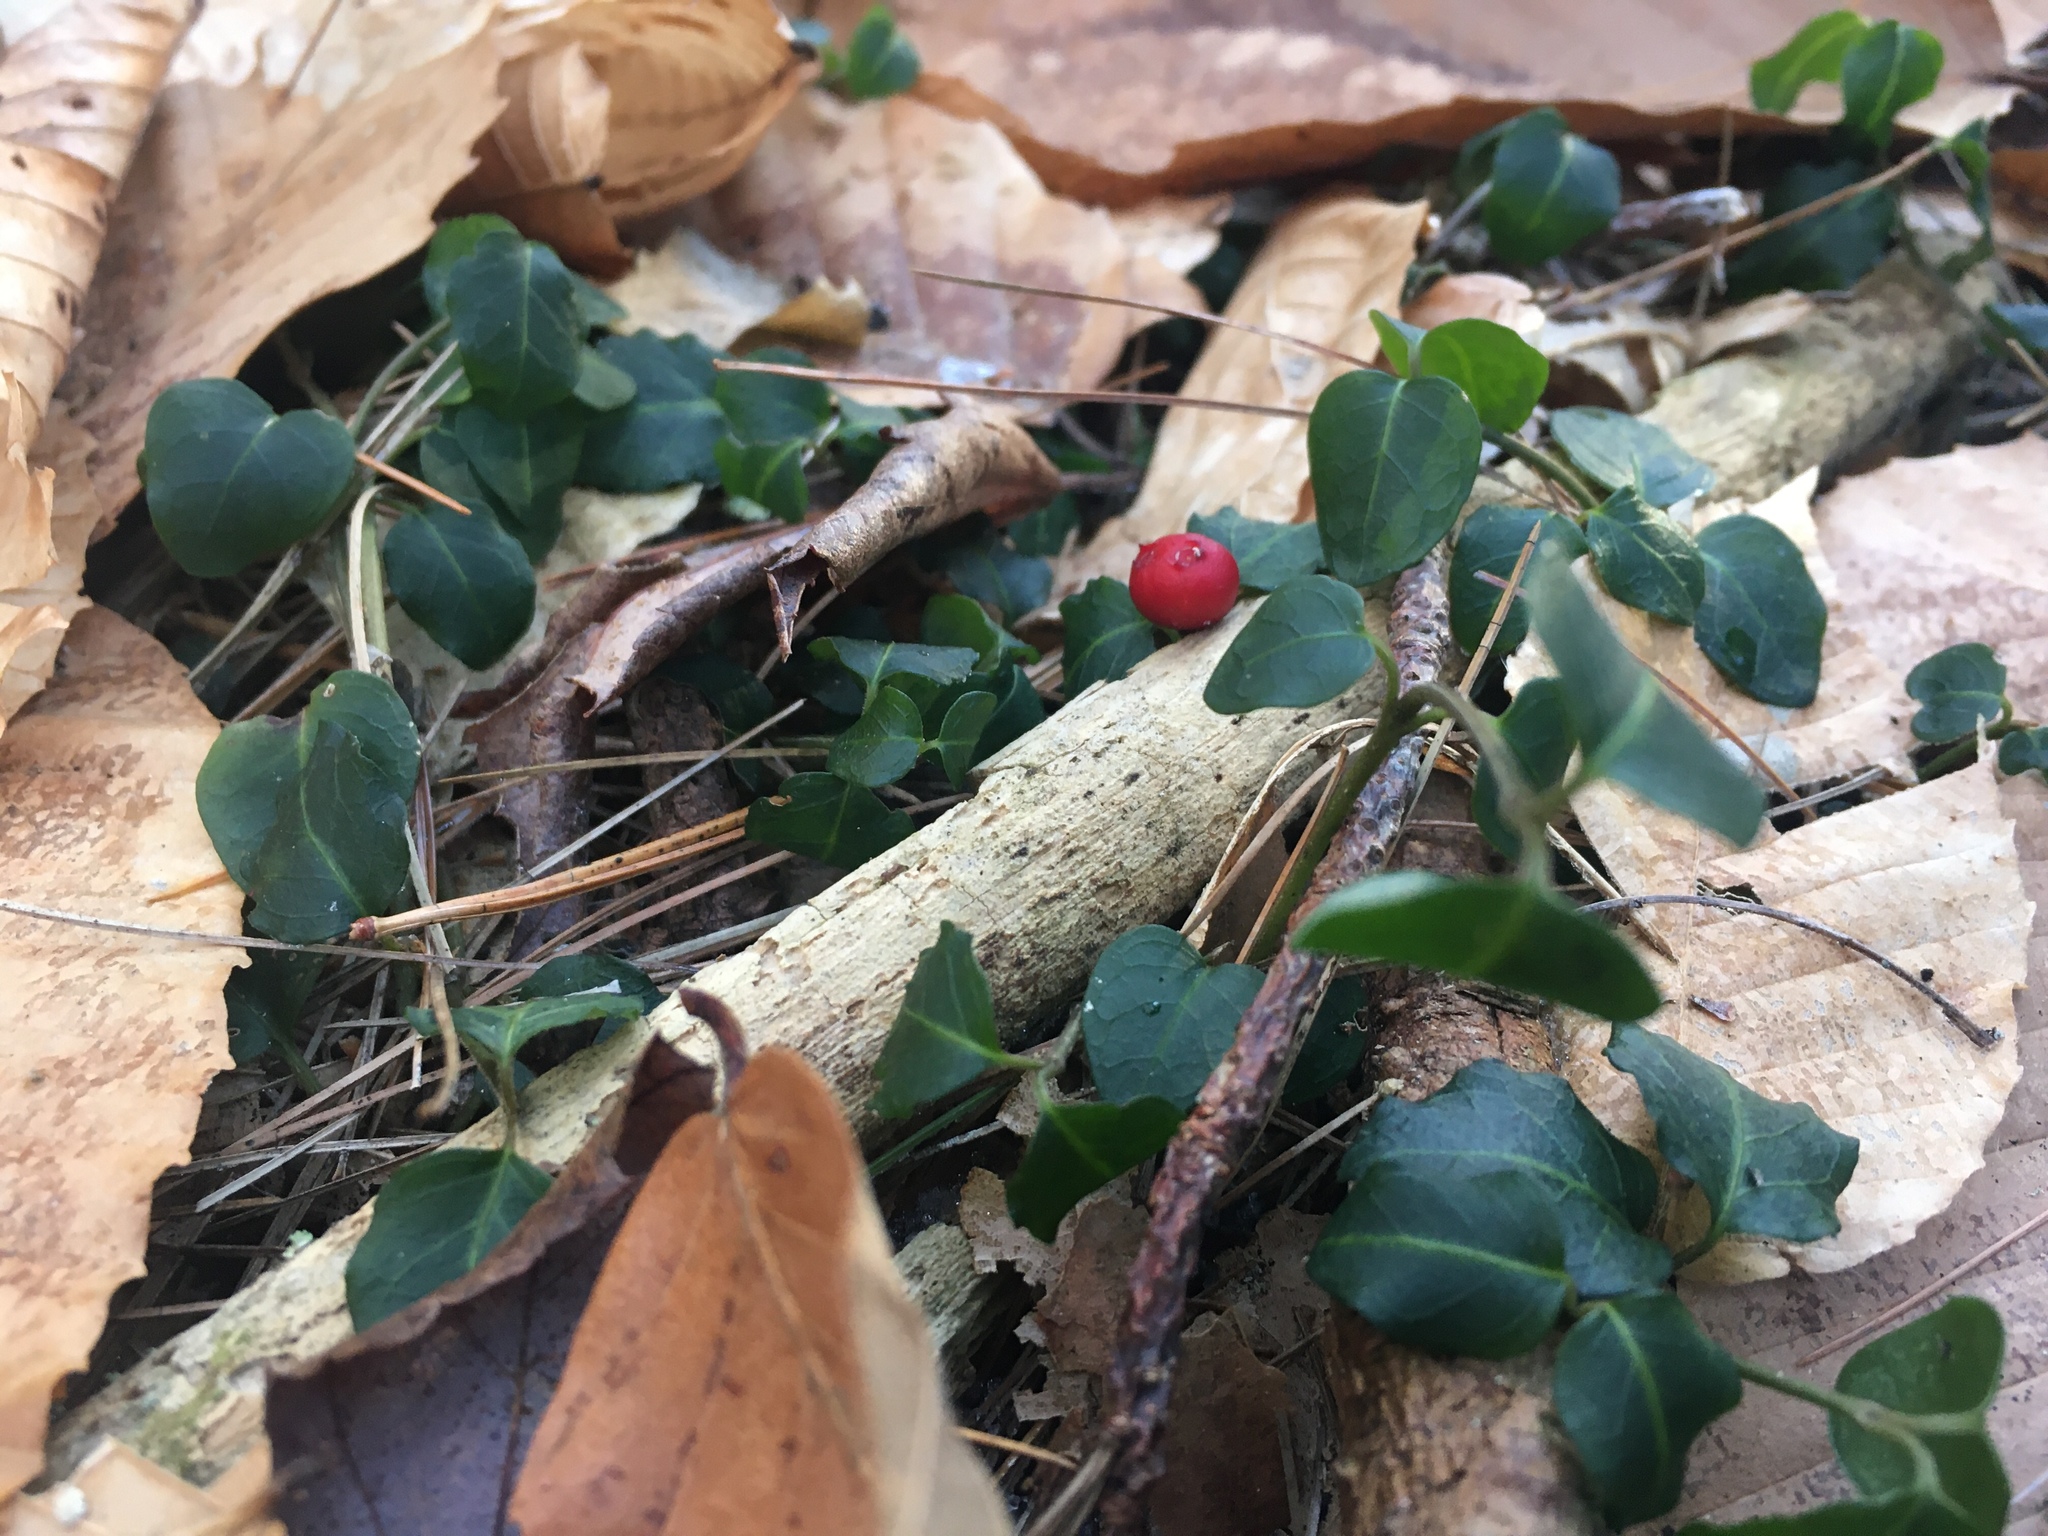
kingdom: Plantae
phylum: Tracheophyta
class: Magnoliopsida
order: Gentianales
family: Rubiaceae
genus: Mitchella
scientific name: Mitchella repens
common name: Partridge-berry
